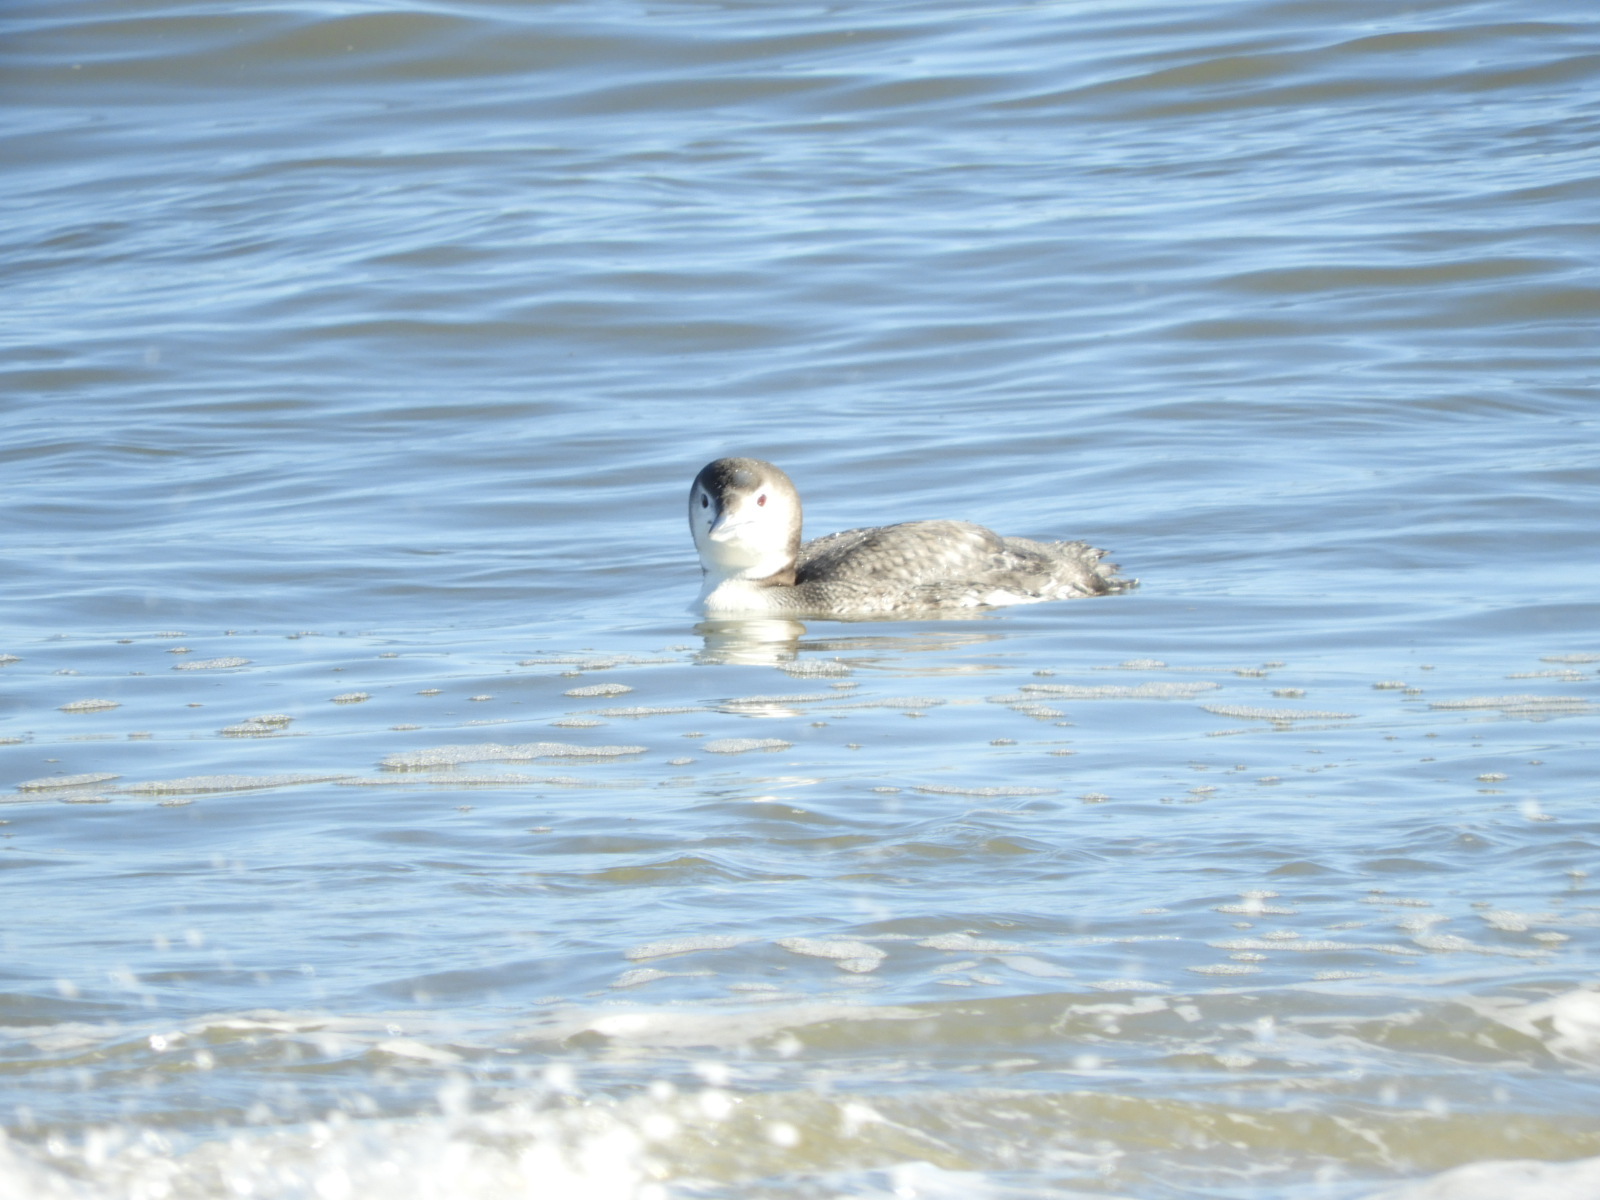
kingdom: Animalia
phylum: Chordata
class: Aves
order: Gaviiformes
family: Gaviidae
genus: Gavia
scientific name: Gavia immer
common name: Common loon
